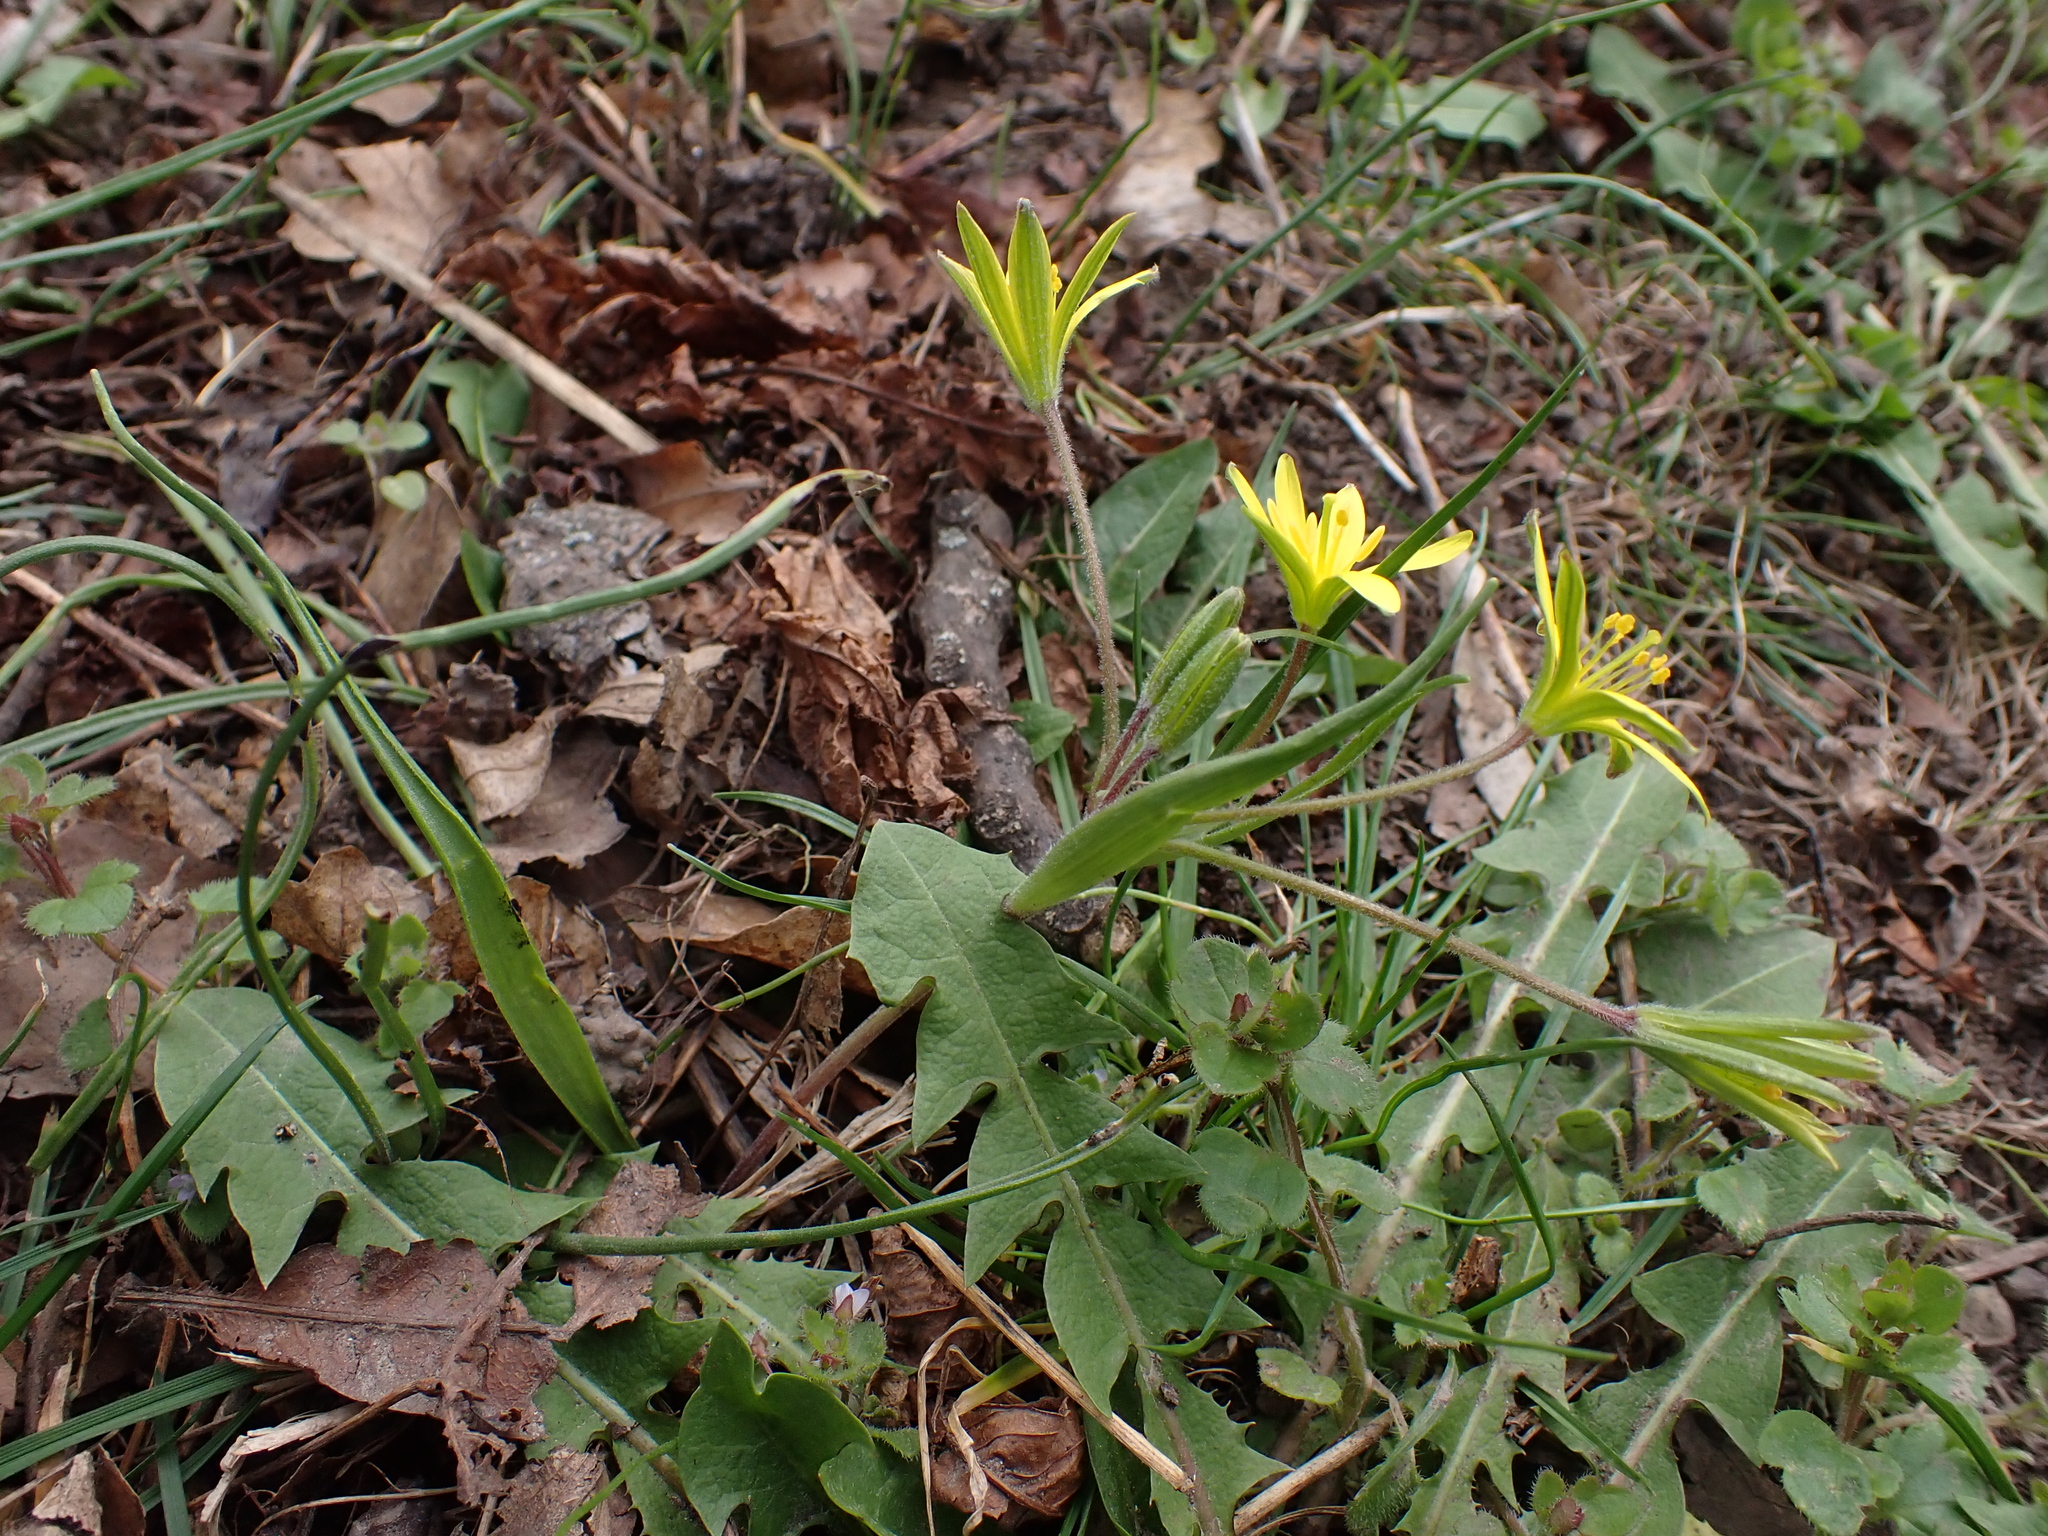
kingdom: Fungi
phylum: Basidiomycota
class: Pucciniomycetes
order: Pucciniales
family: Pucciniaceae
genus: Uromyces
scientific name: Uromyces acutatus
